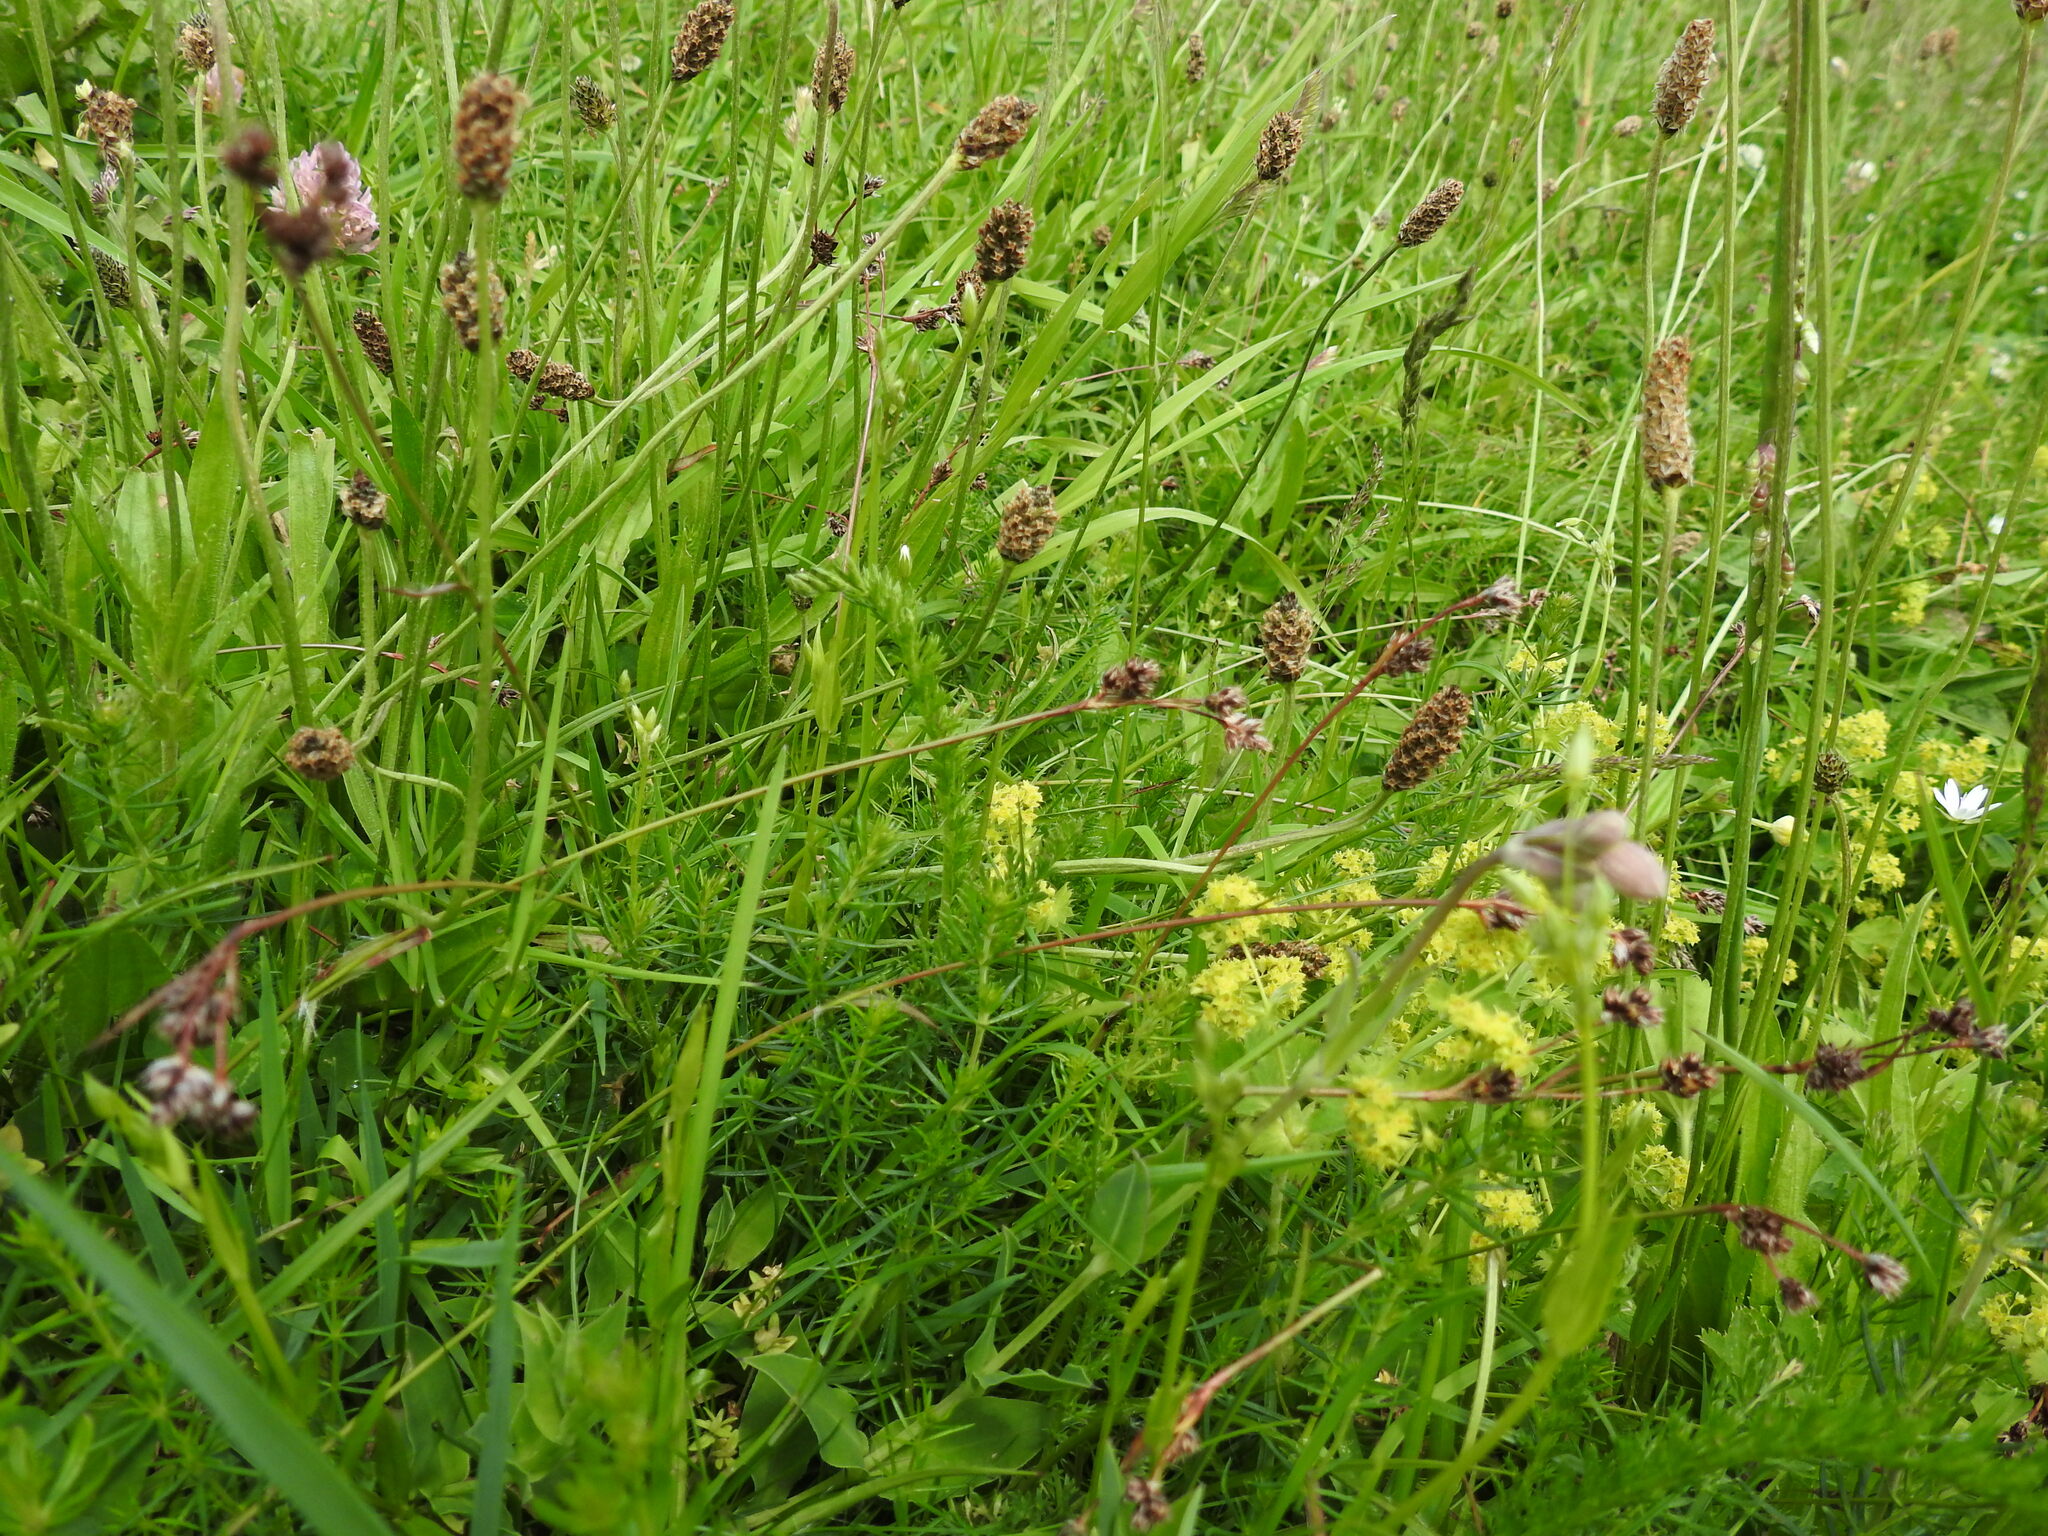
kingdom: Plantae
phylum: Tracheophyta
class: Liliopsida
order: Poales
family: Juncaceae
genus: Luzula
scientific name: Luzula campestris
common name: Field wood-rush
